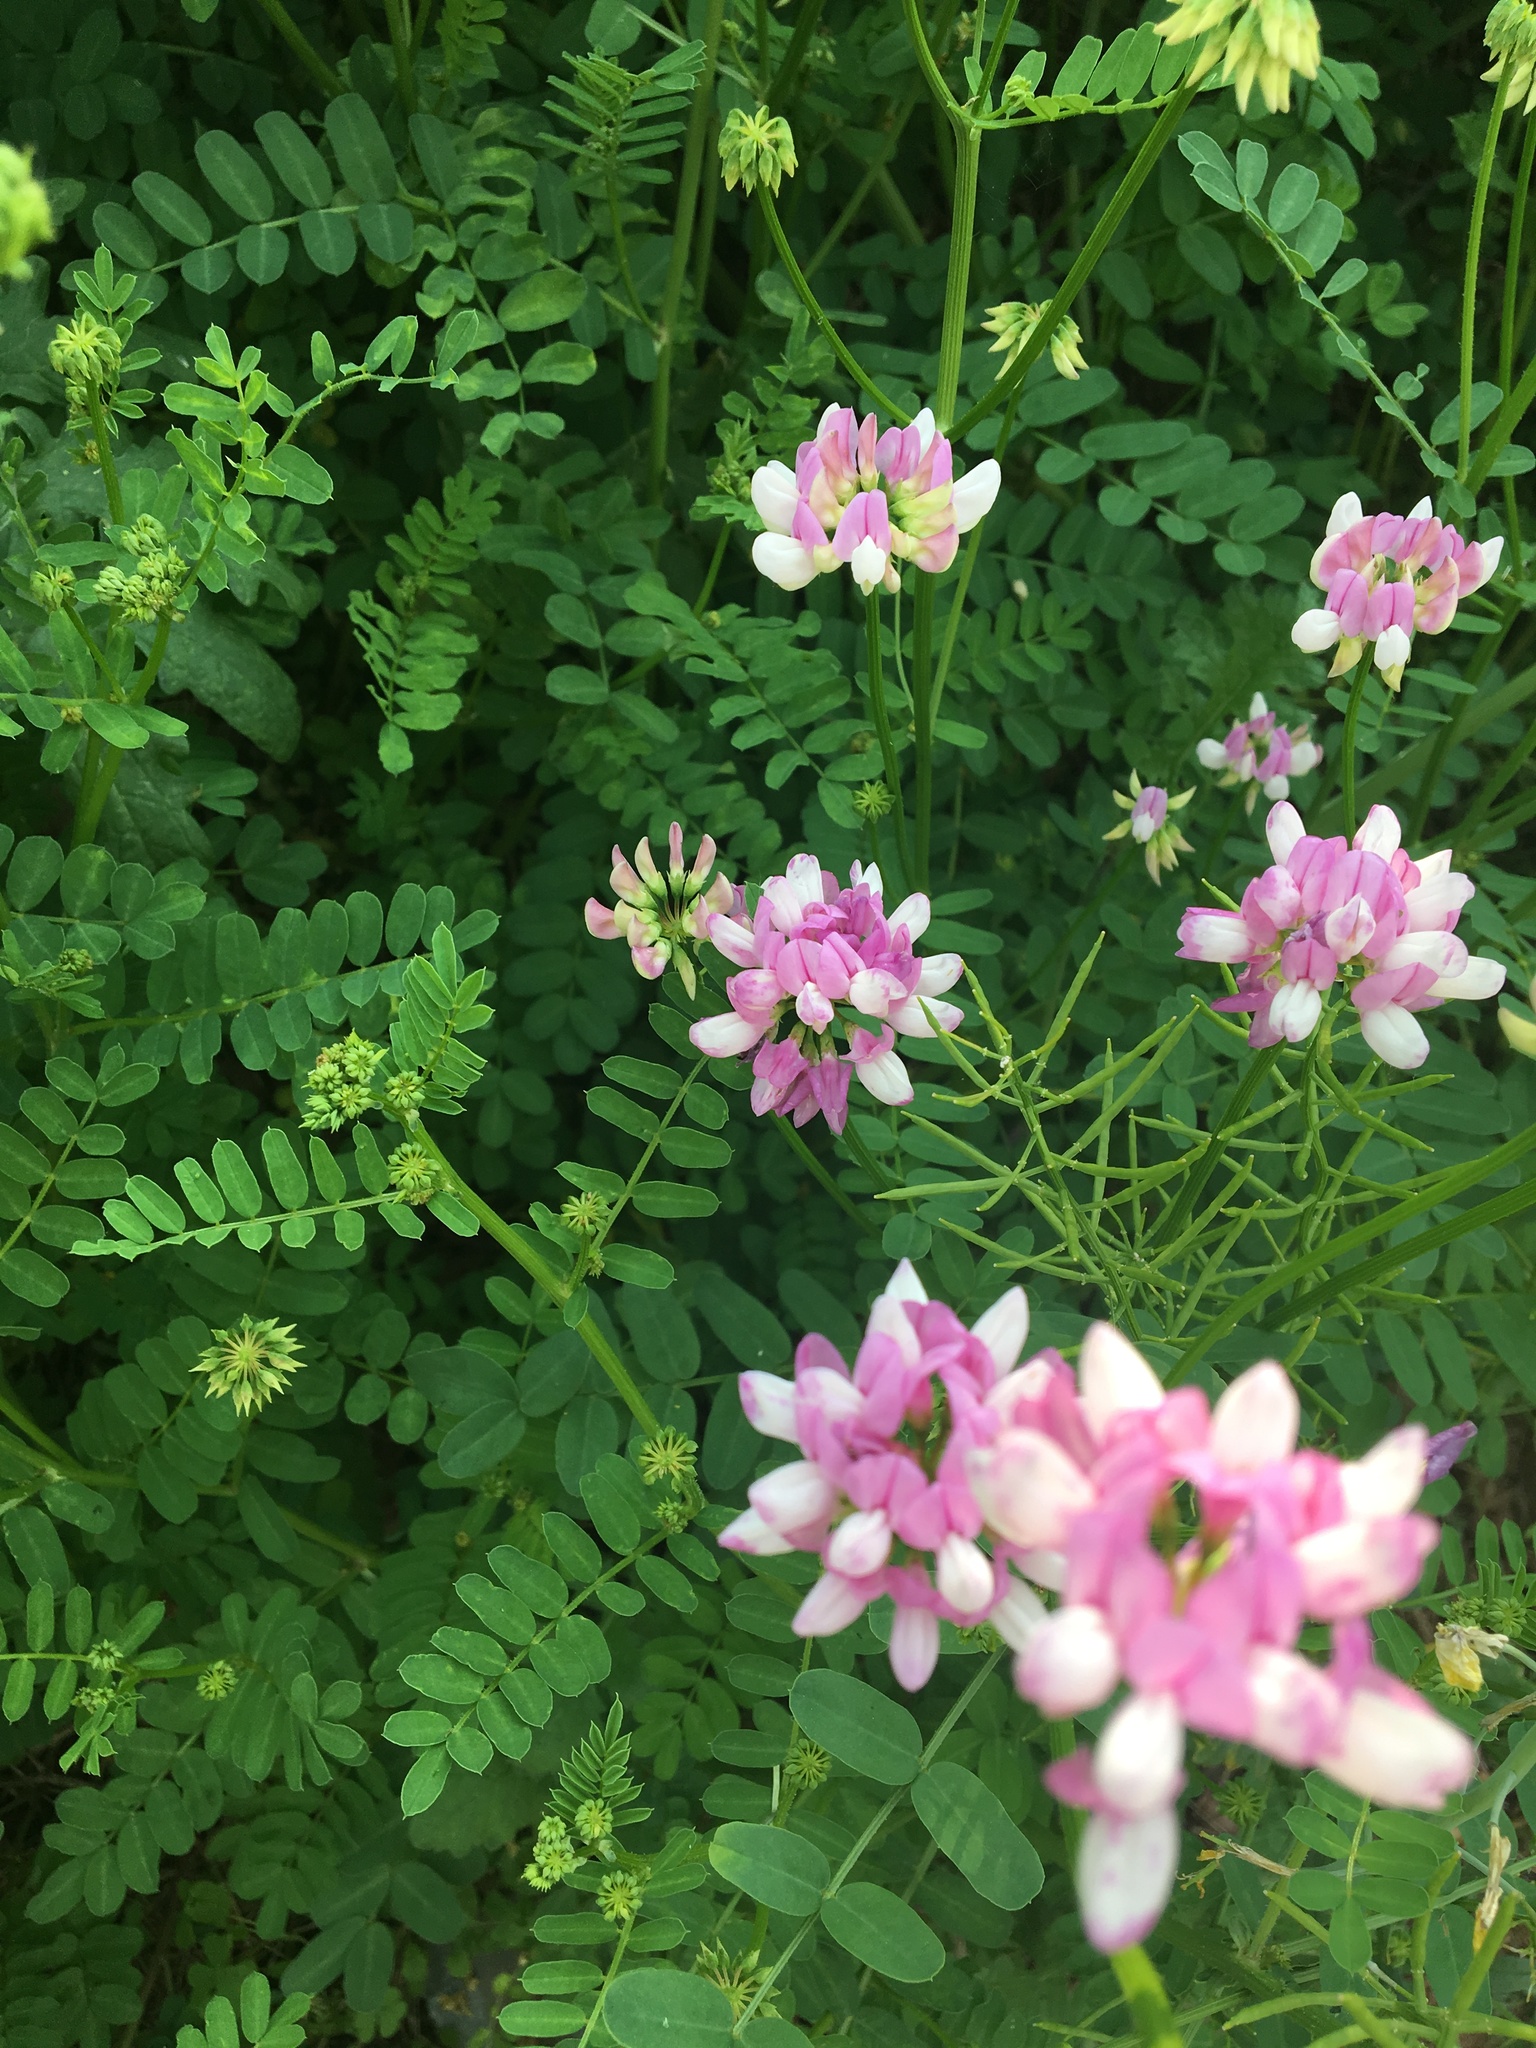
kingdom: Plantae
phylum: Tracheophyta
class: Magnoliopsida
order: Fabales
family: Fabaceae
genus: Coronilla
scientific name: Coronilla varia
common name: Crownvetch
